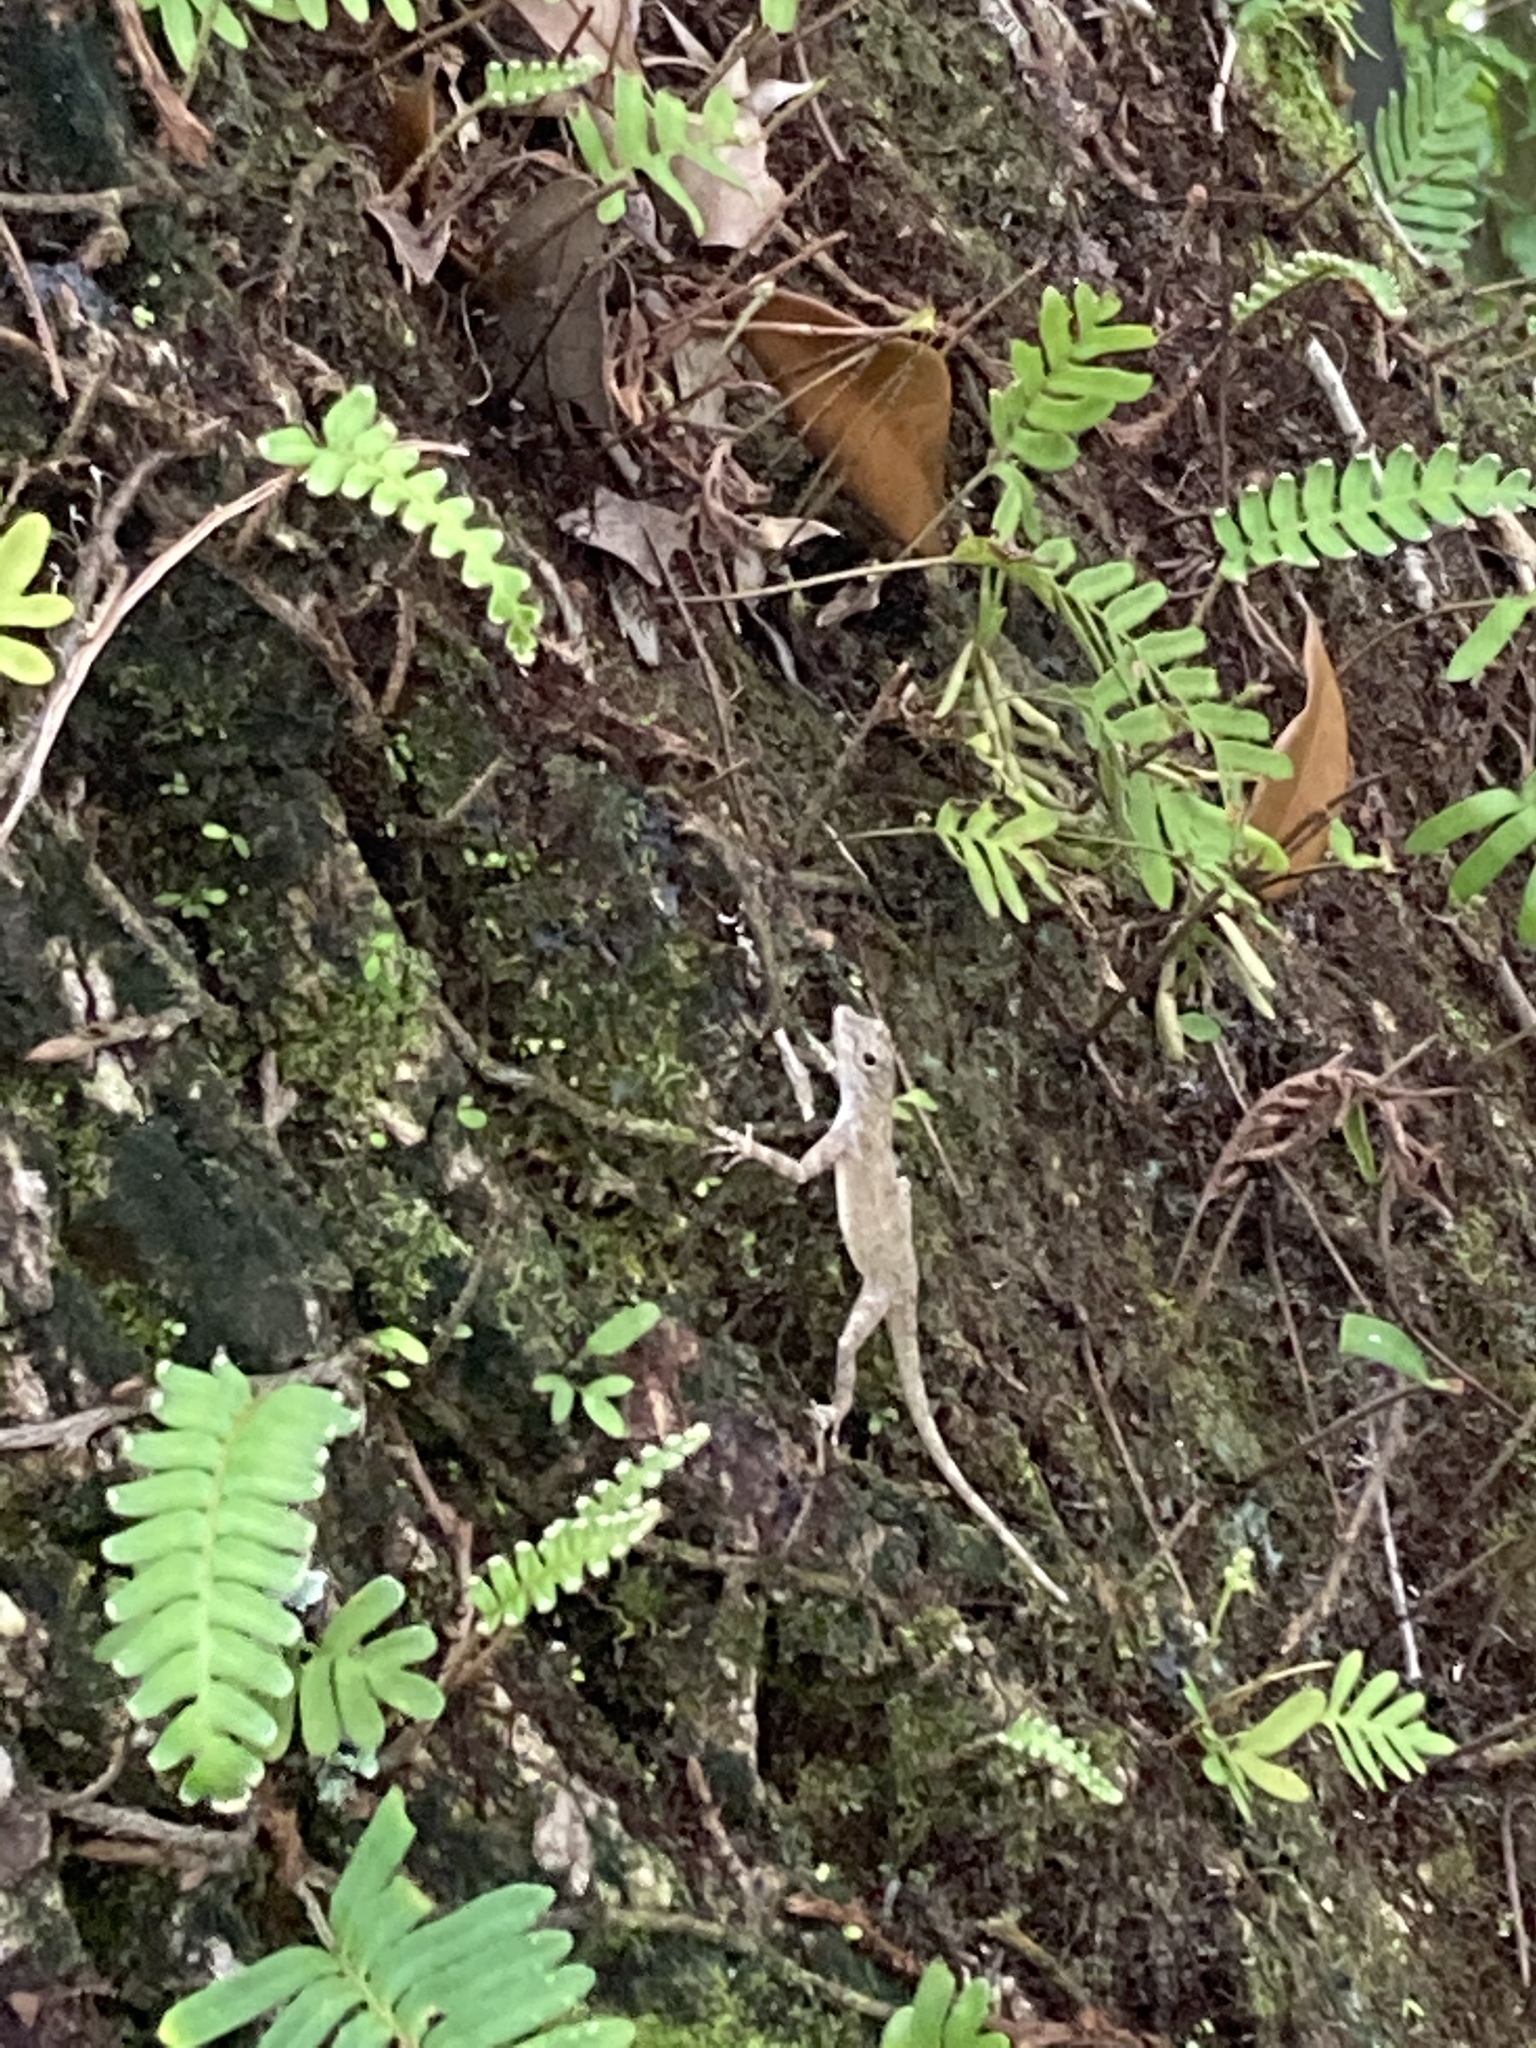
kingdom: Animalia
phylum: Chordata
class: Squamata
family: Dactyloidae
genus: Anolis
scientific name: Anolis distichus
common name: Bark anole
